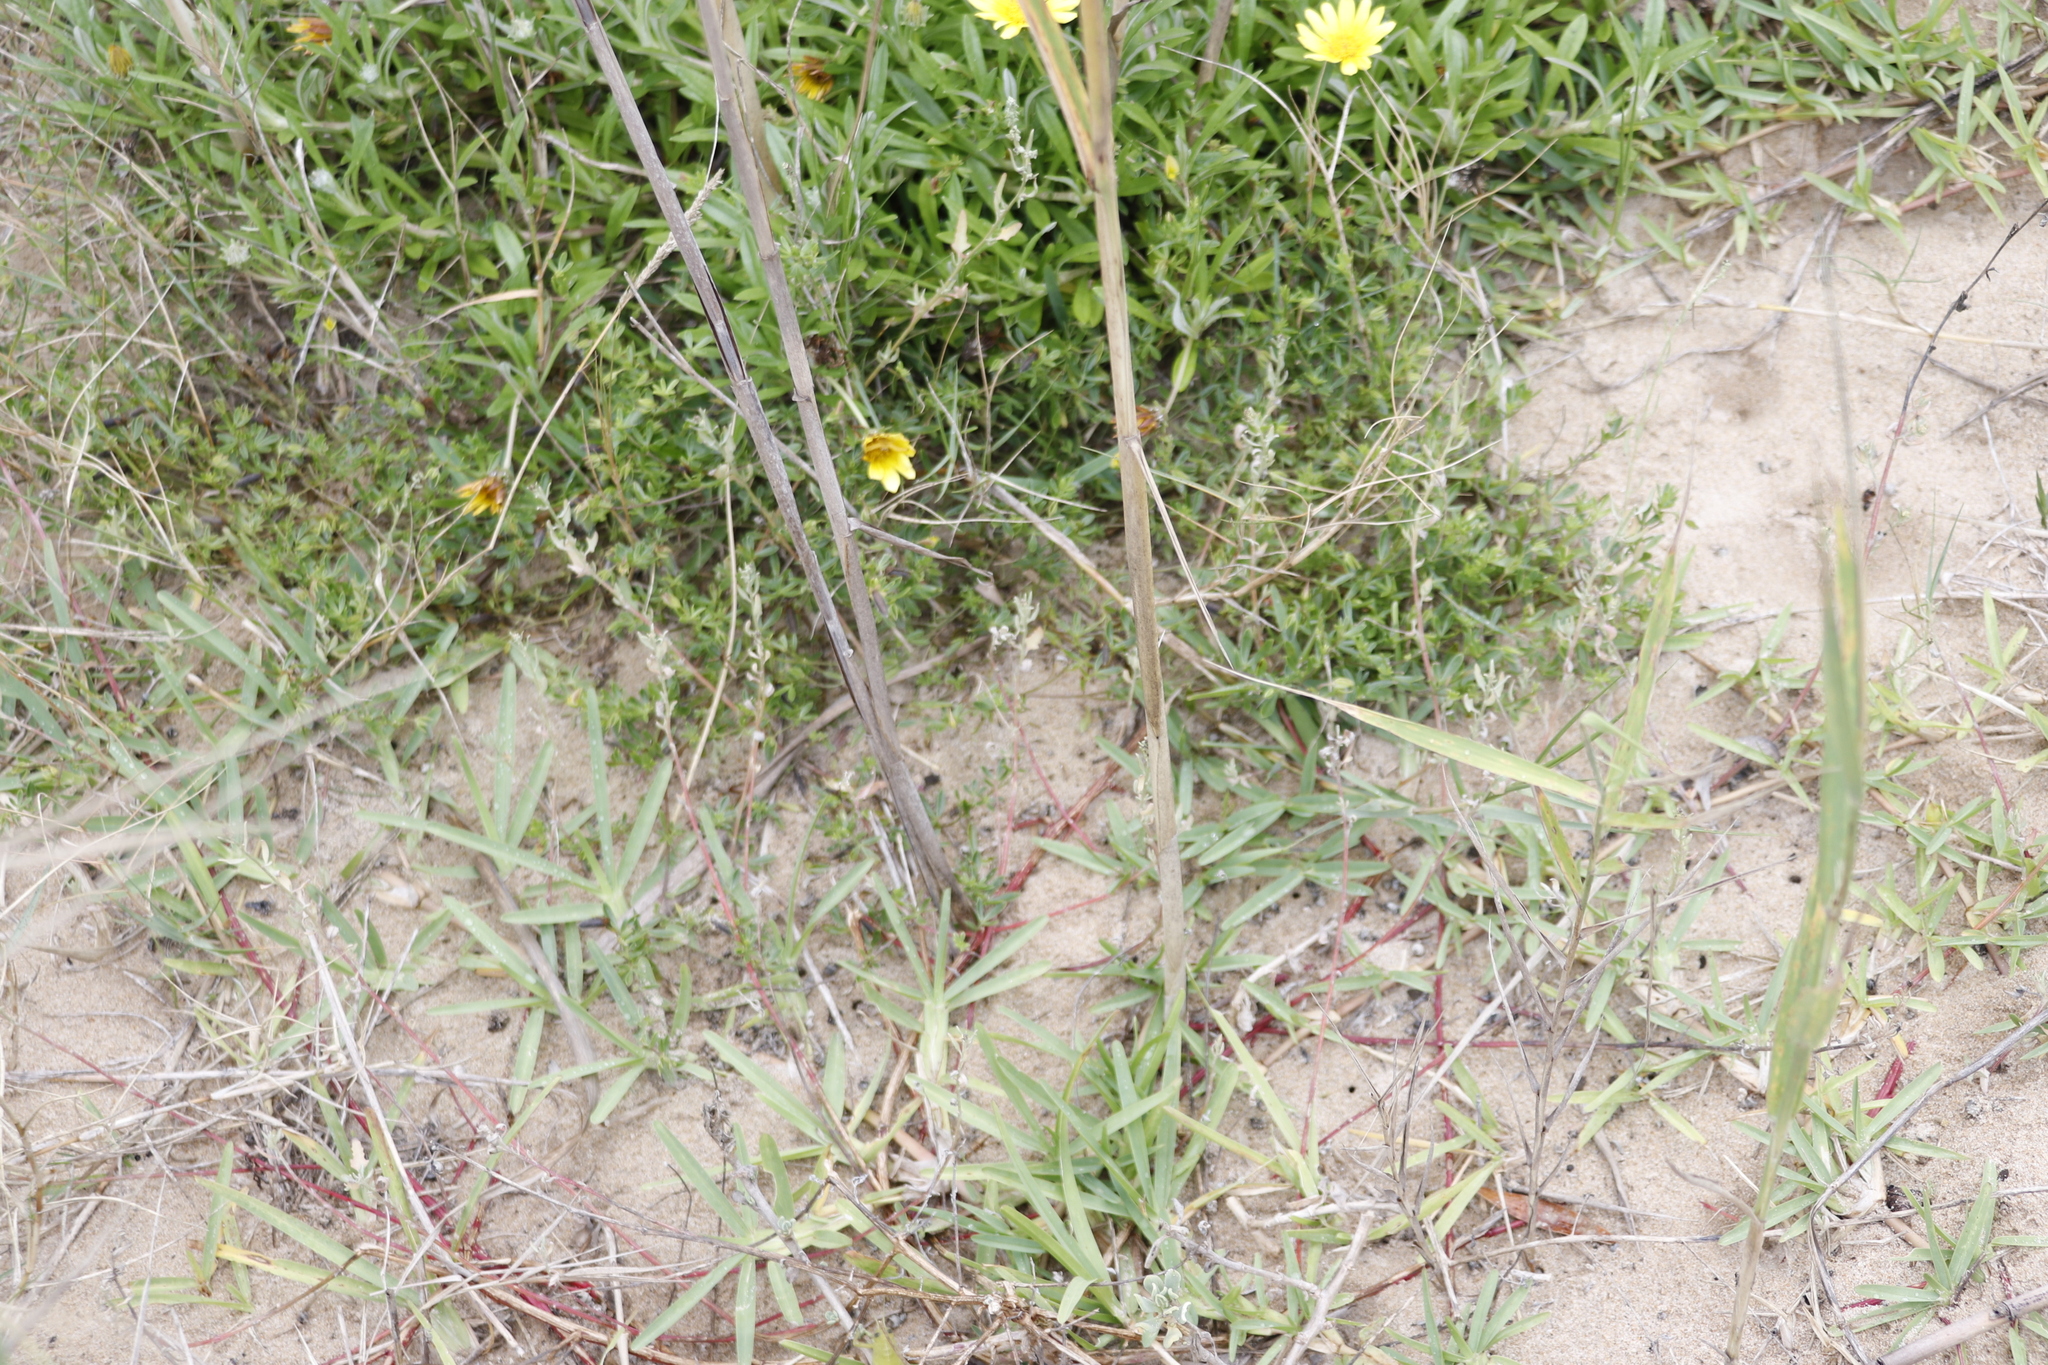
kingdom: Plantae
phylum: Tracheophyta
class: Liliopsida
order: Poales
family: Poaceae
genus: Stenotaphrum
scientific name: Stenotaphrum secundatum
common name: St. augustine grass
